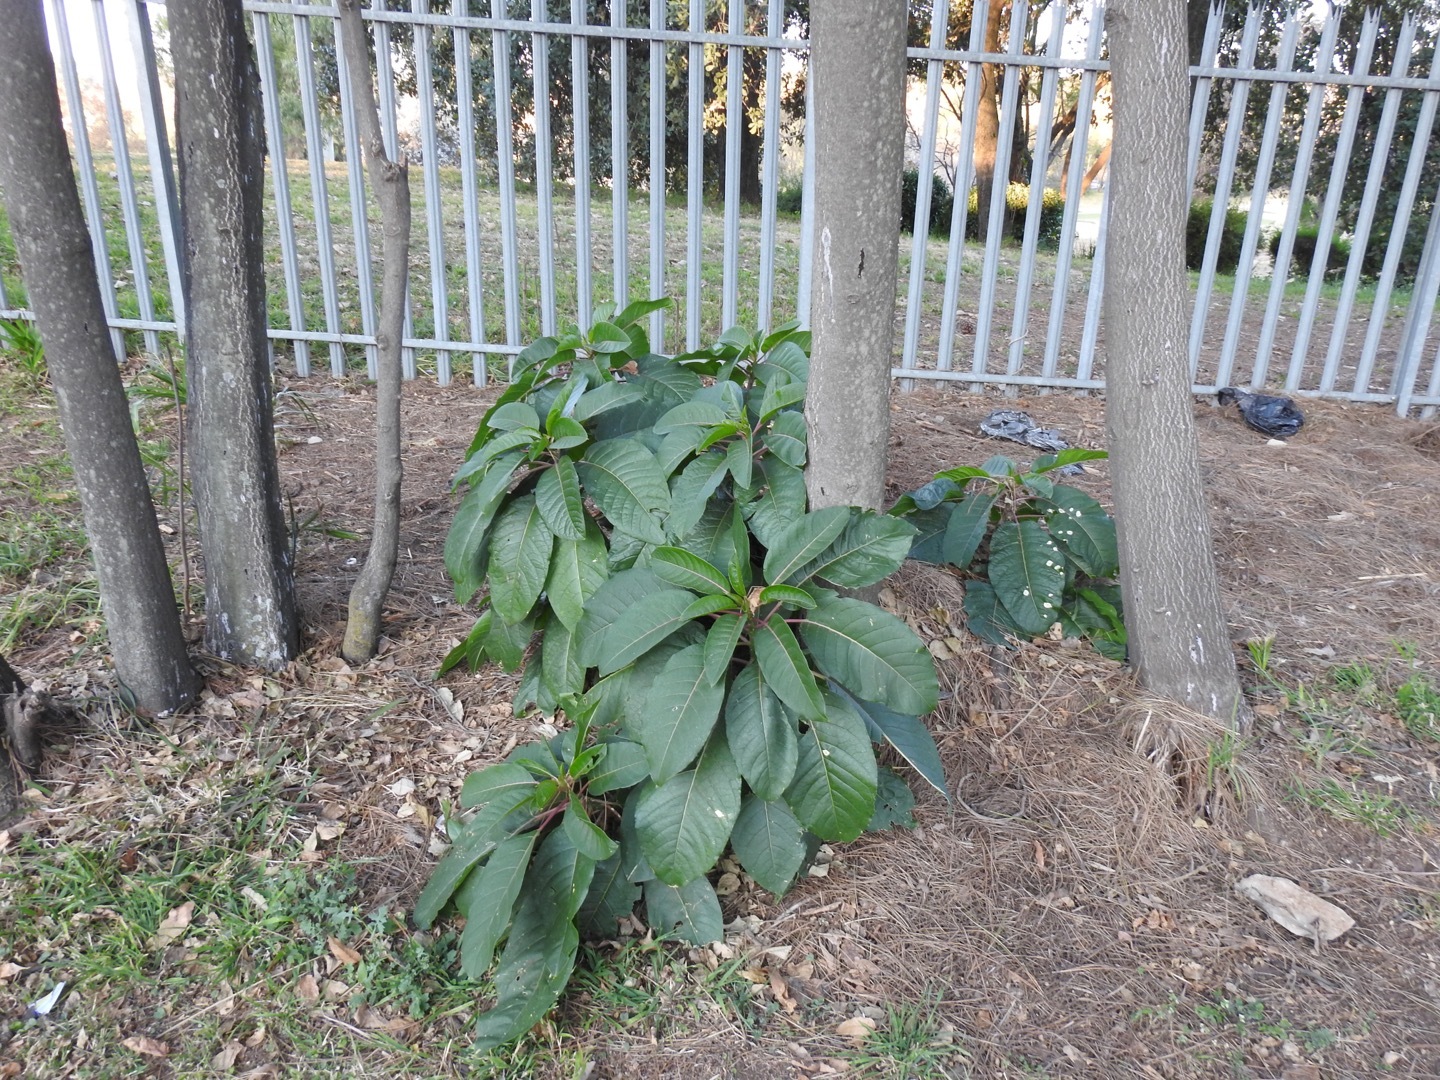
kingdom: Plantae
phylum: Tracheophyta
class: Magnoliopsida
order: Caryophyllales
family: Phytolaccaceae
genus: Phytolacca
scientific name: Phytolacca dioica
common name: Pokeweed
